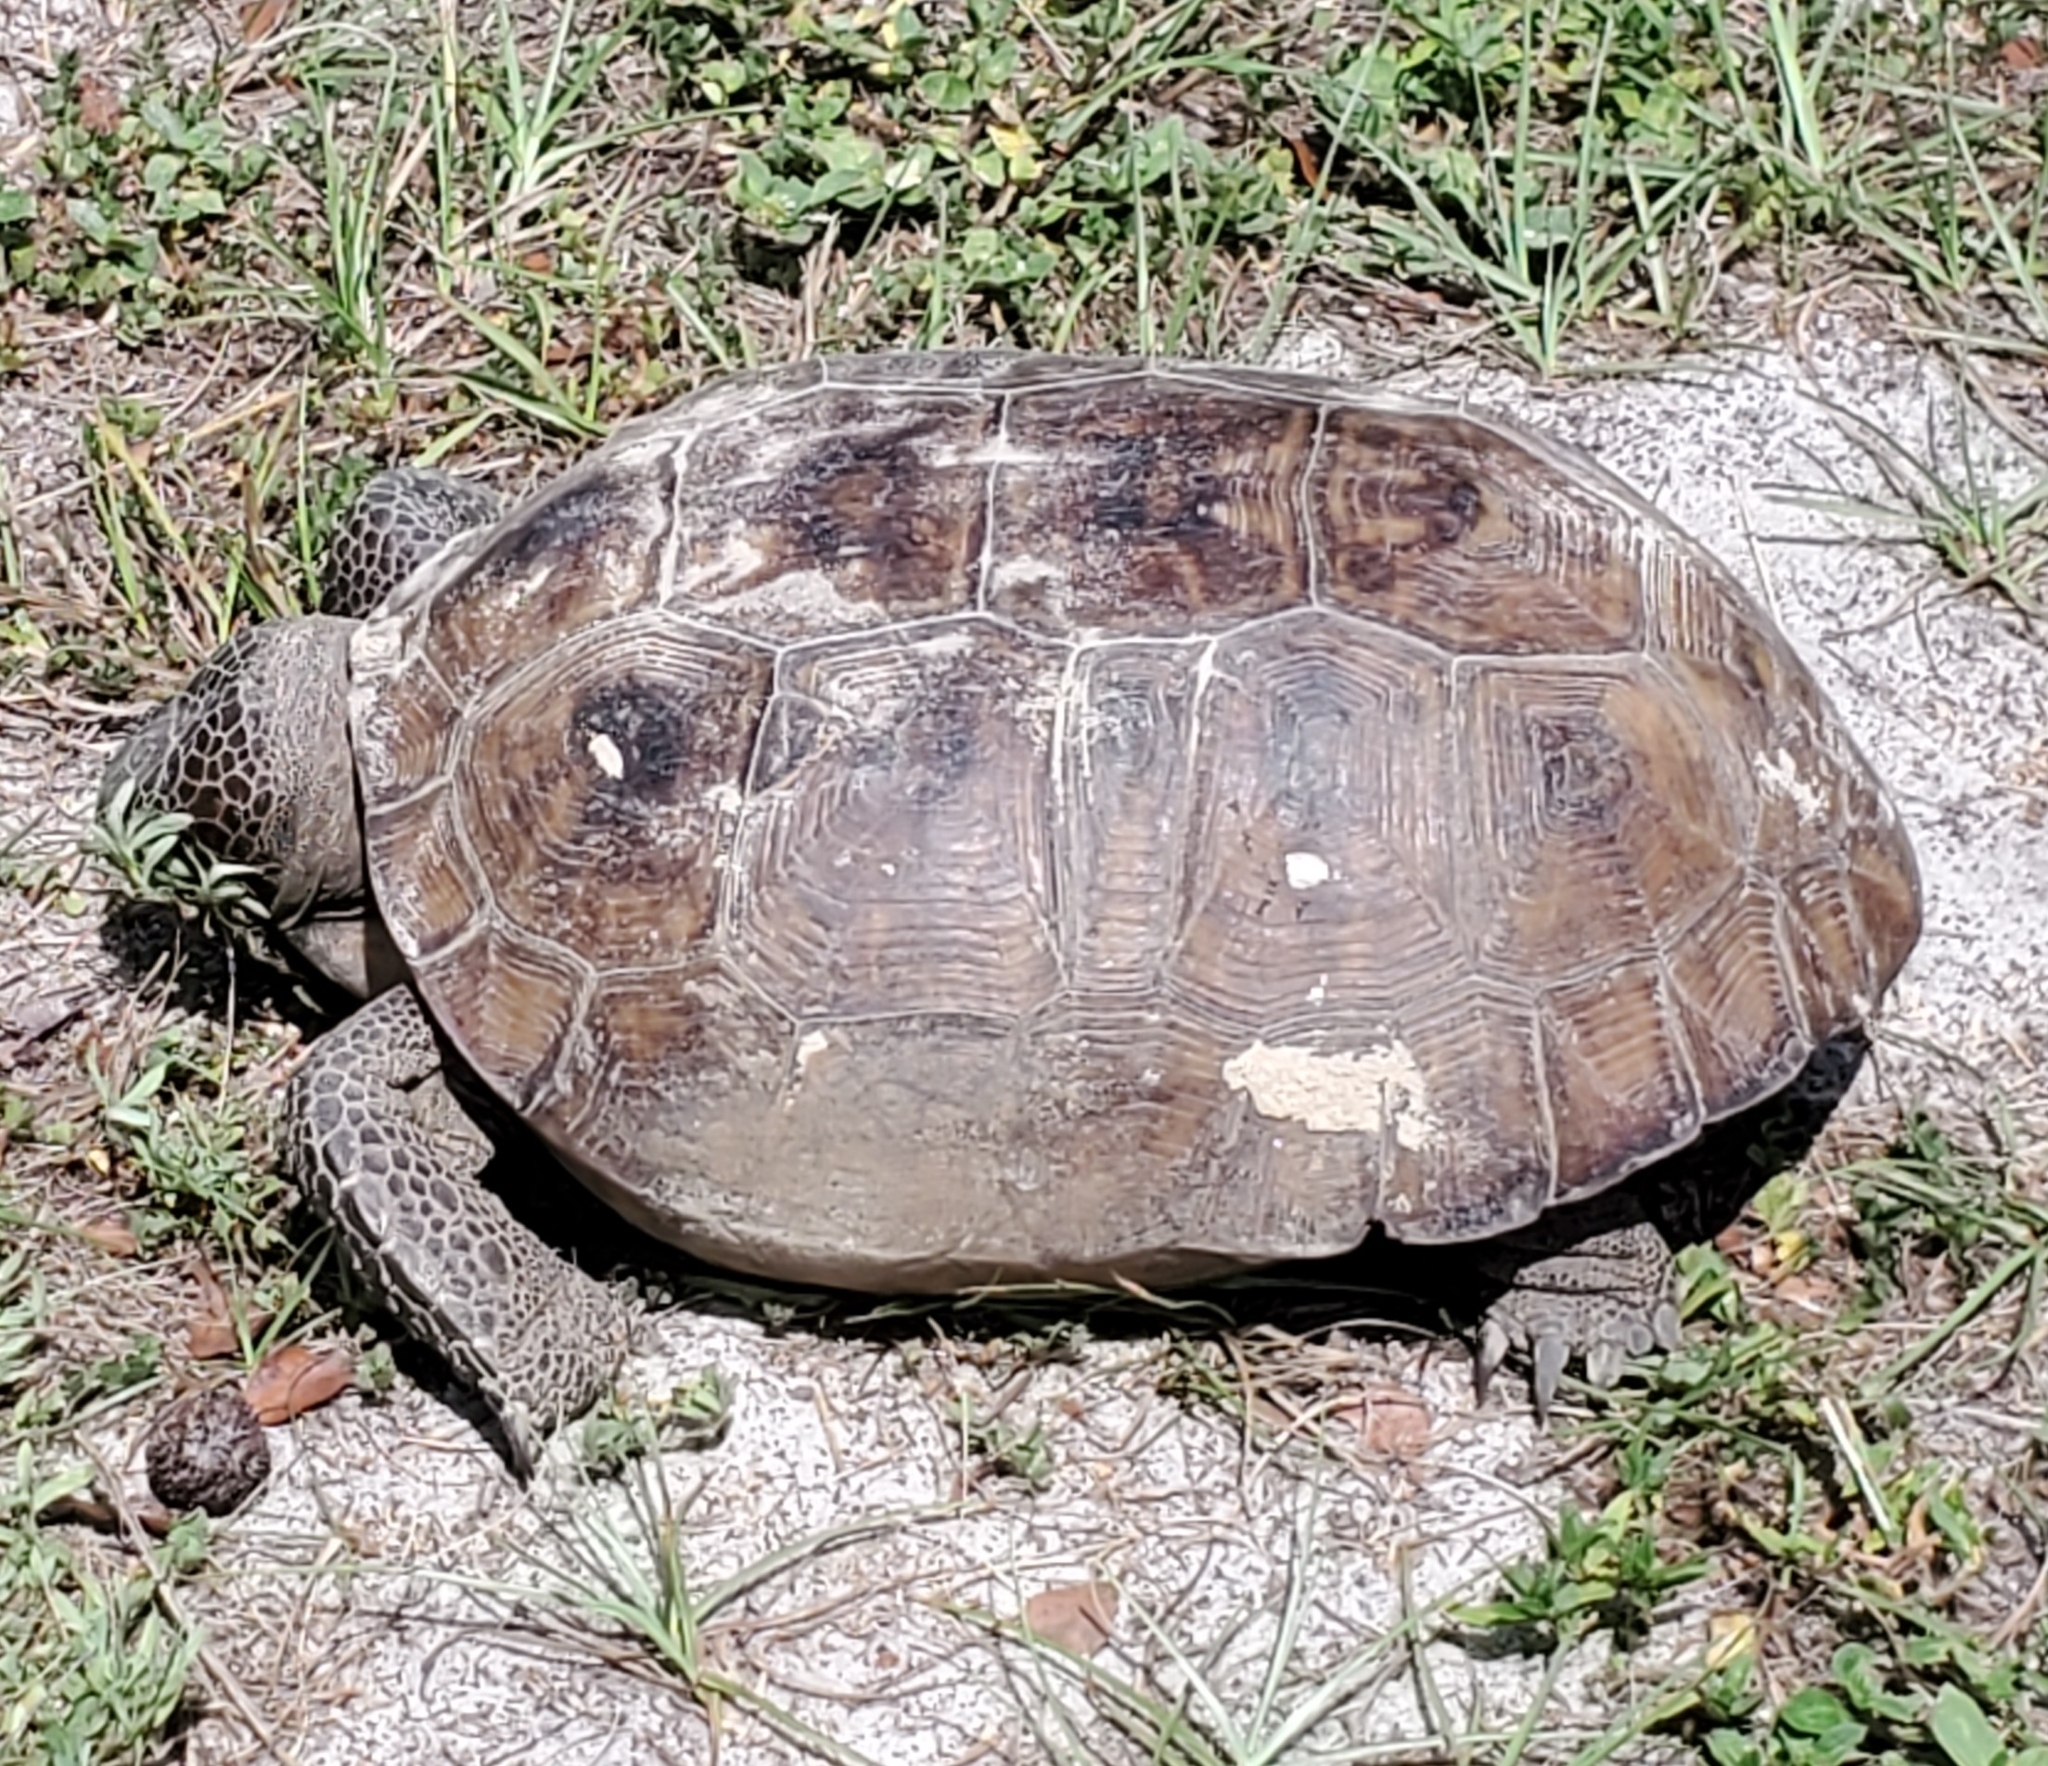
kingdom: Animalia
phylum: Chordata
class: Testudines
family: Testudinidae
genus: Gopherus
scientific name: Gopherus polyphemus
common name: Florida gopher tortoise
